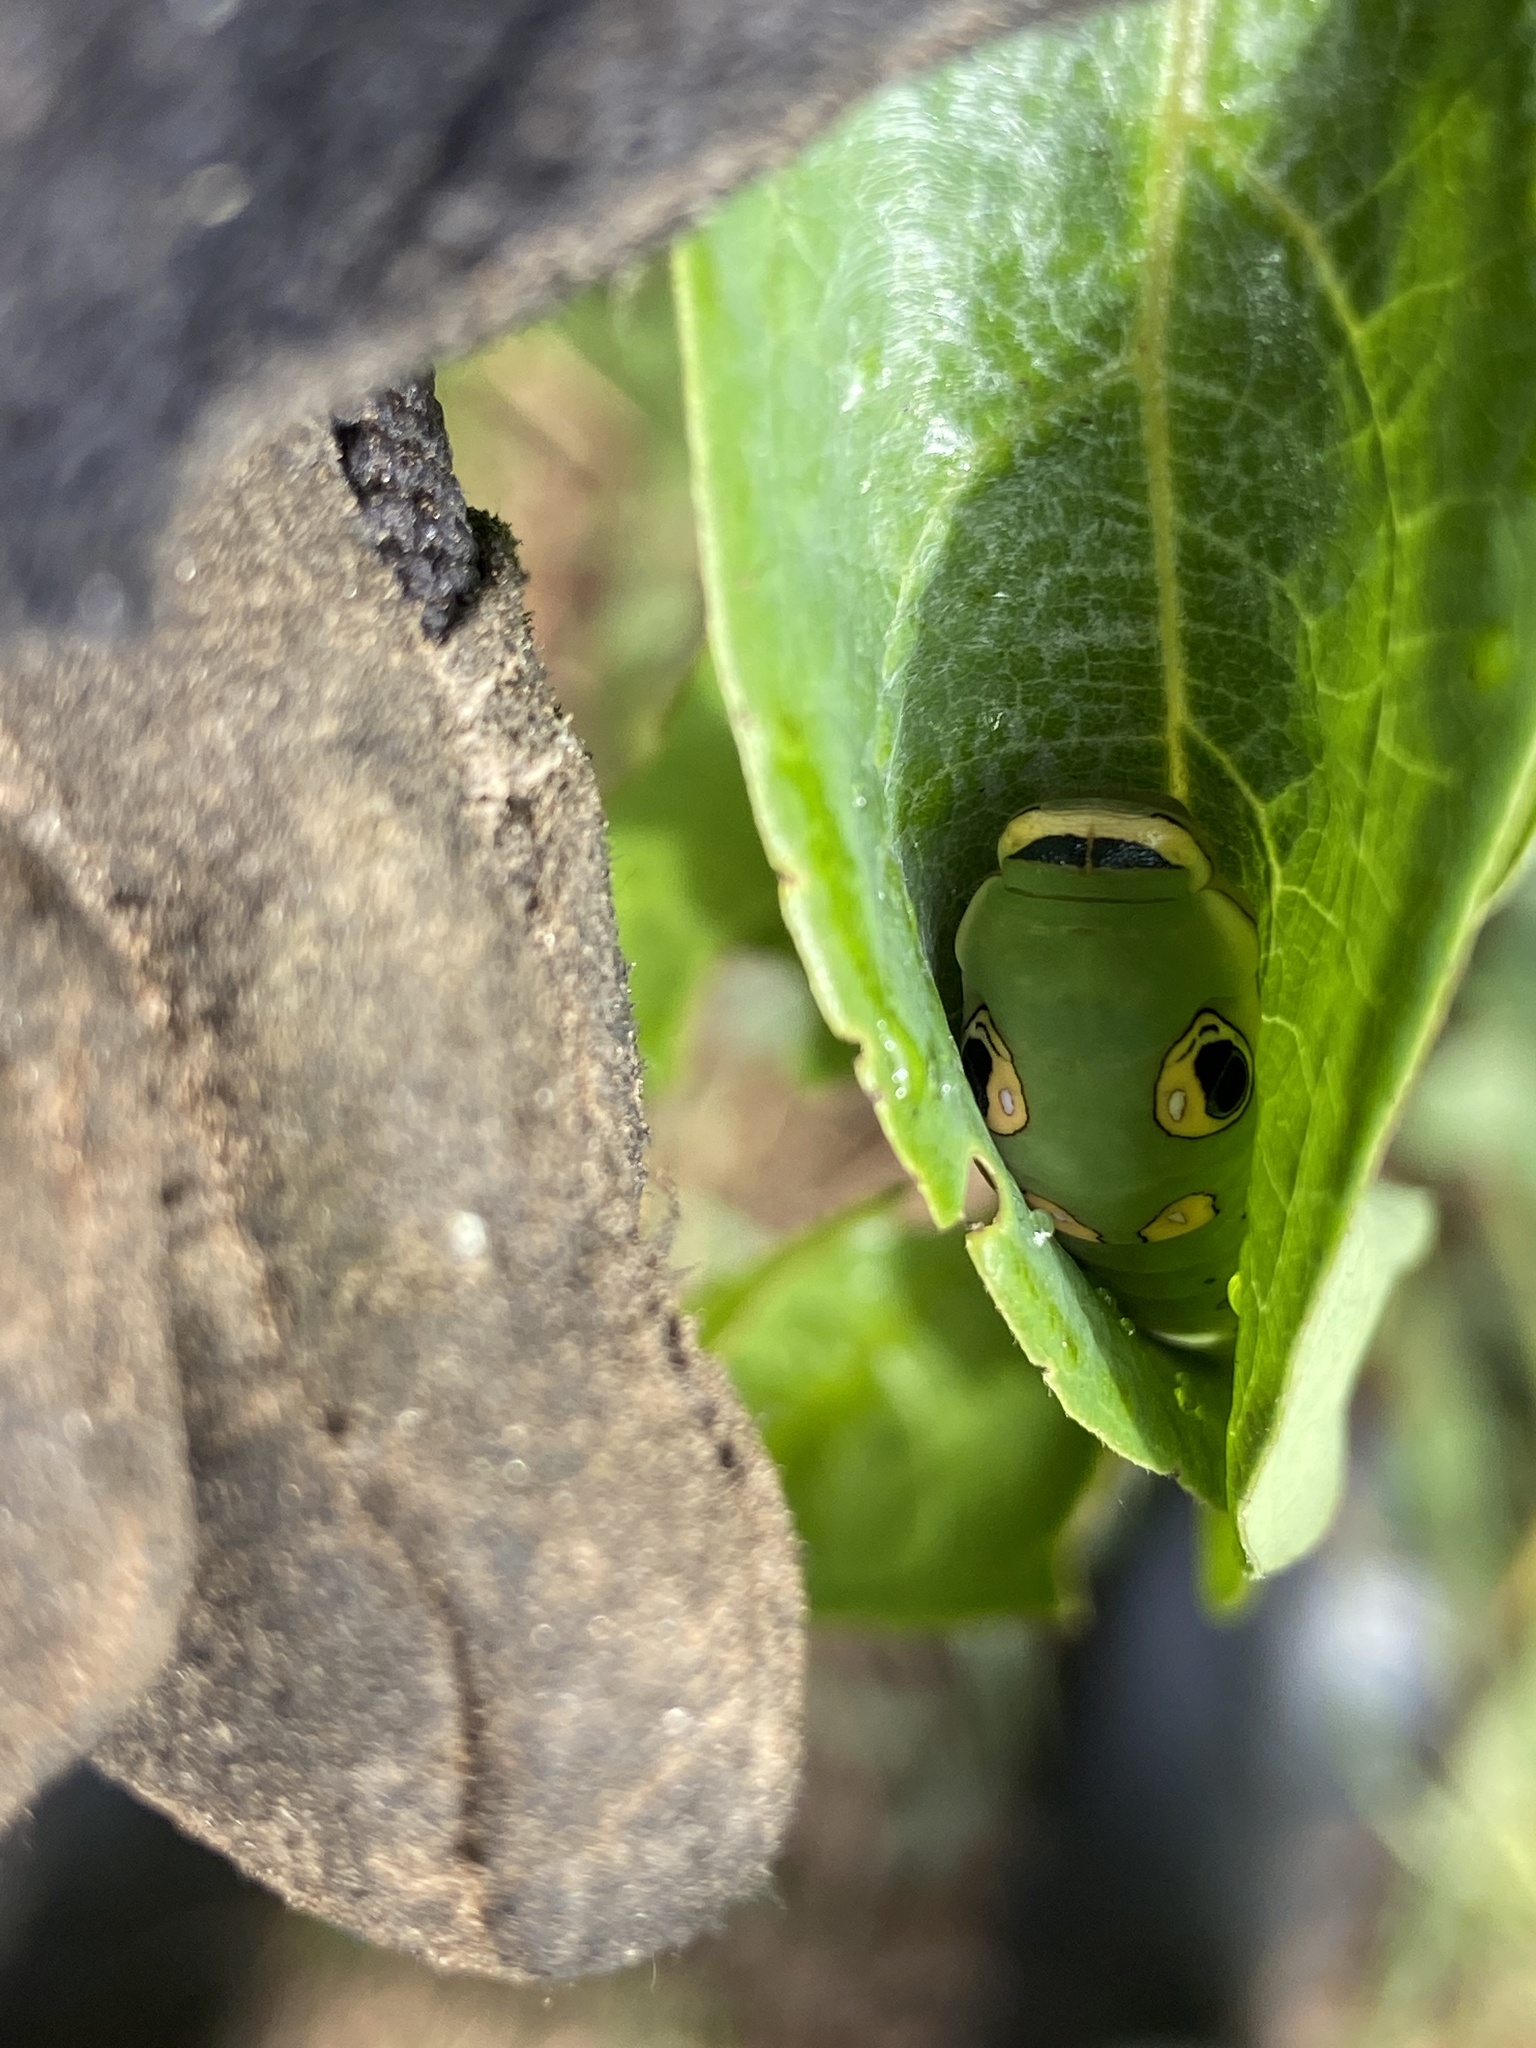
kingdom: Animalia
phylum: Arthropoda
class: Insecta
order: Lepidoptera
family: Papilionidae
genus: Papilio
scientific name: Papilio troilus
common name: Spicebush swallowtail
